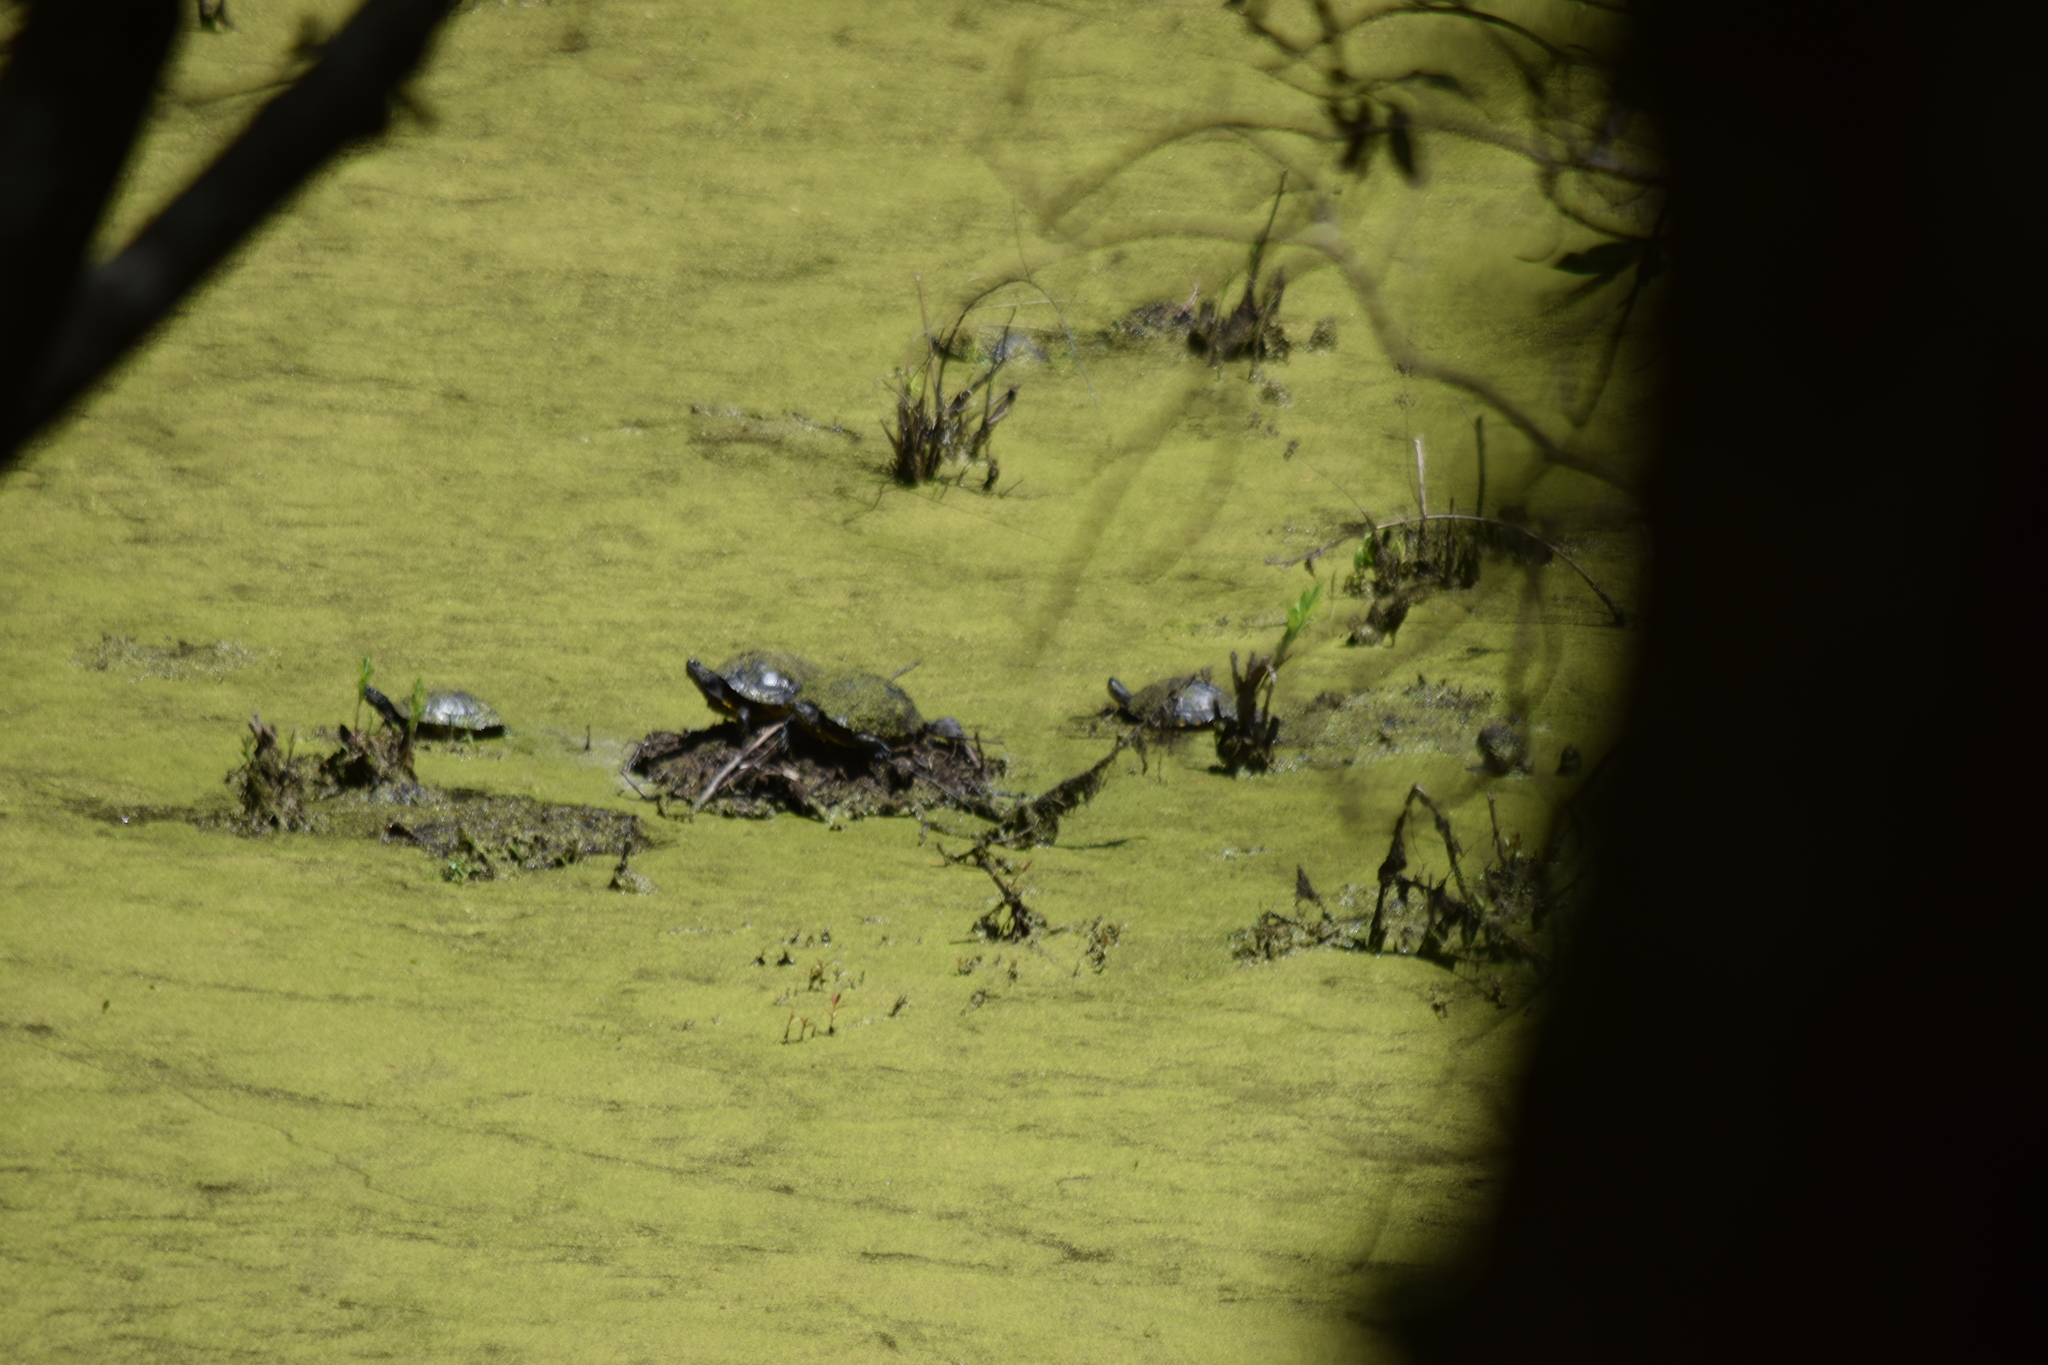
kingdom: Animalia
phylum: Chordata
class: Testudines
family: Emydidae
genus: Trachemys
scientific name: Trachemys scripta
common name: Slider
